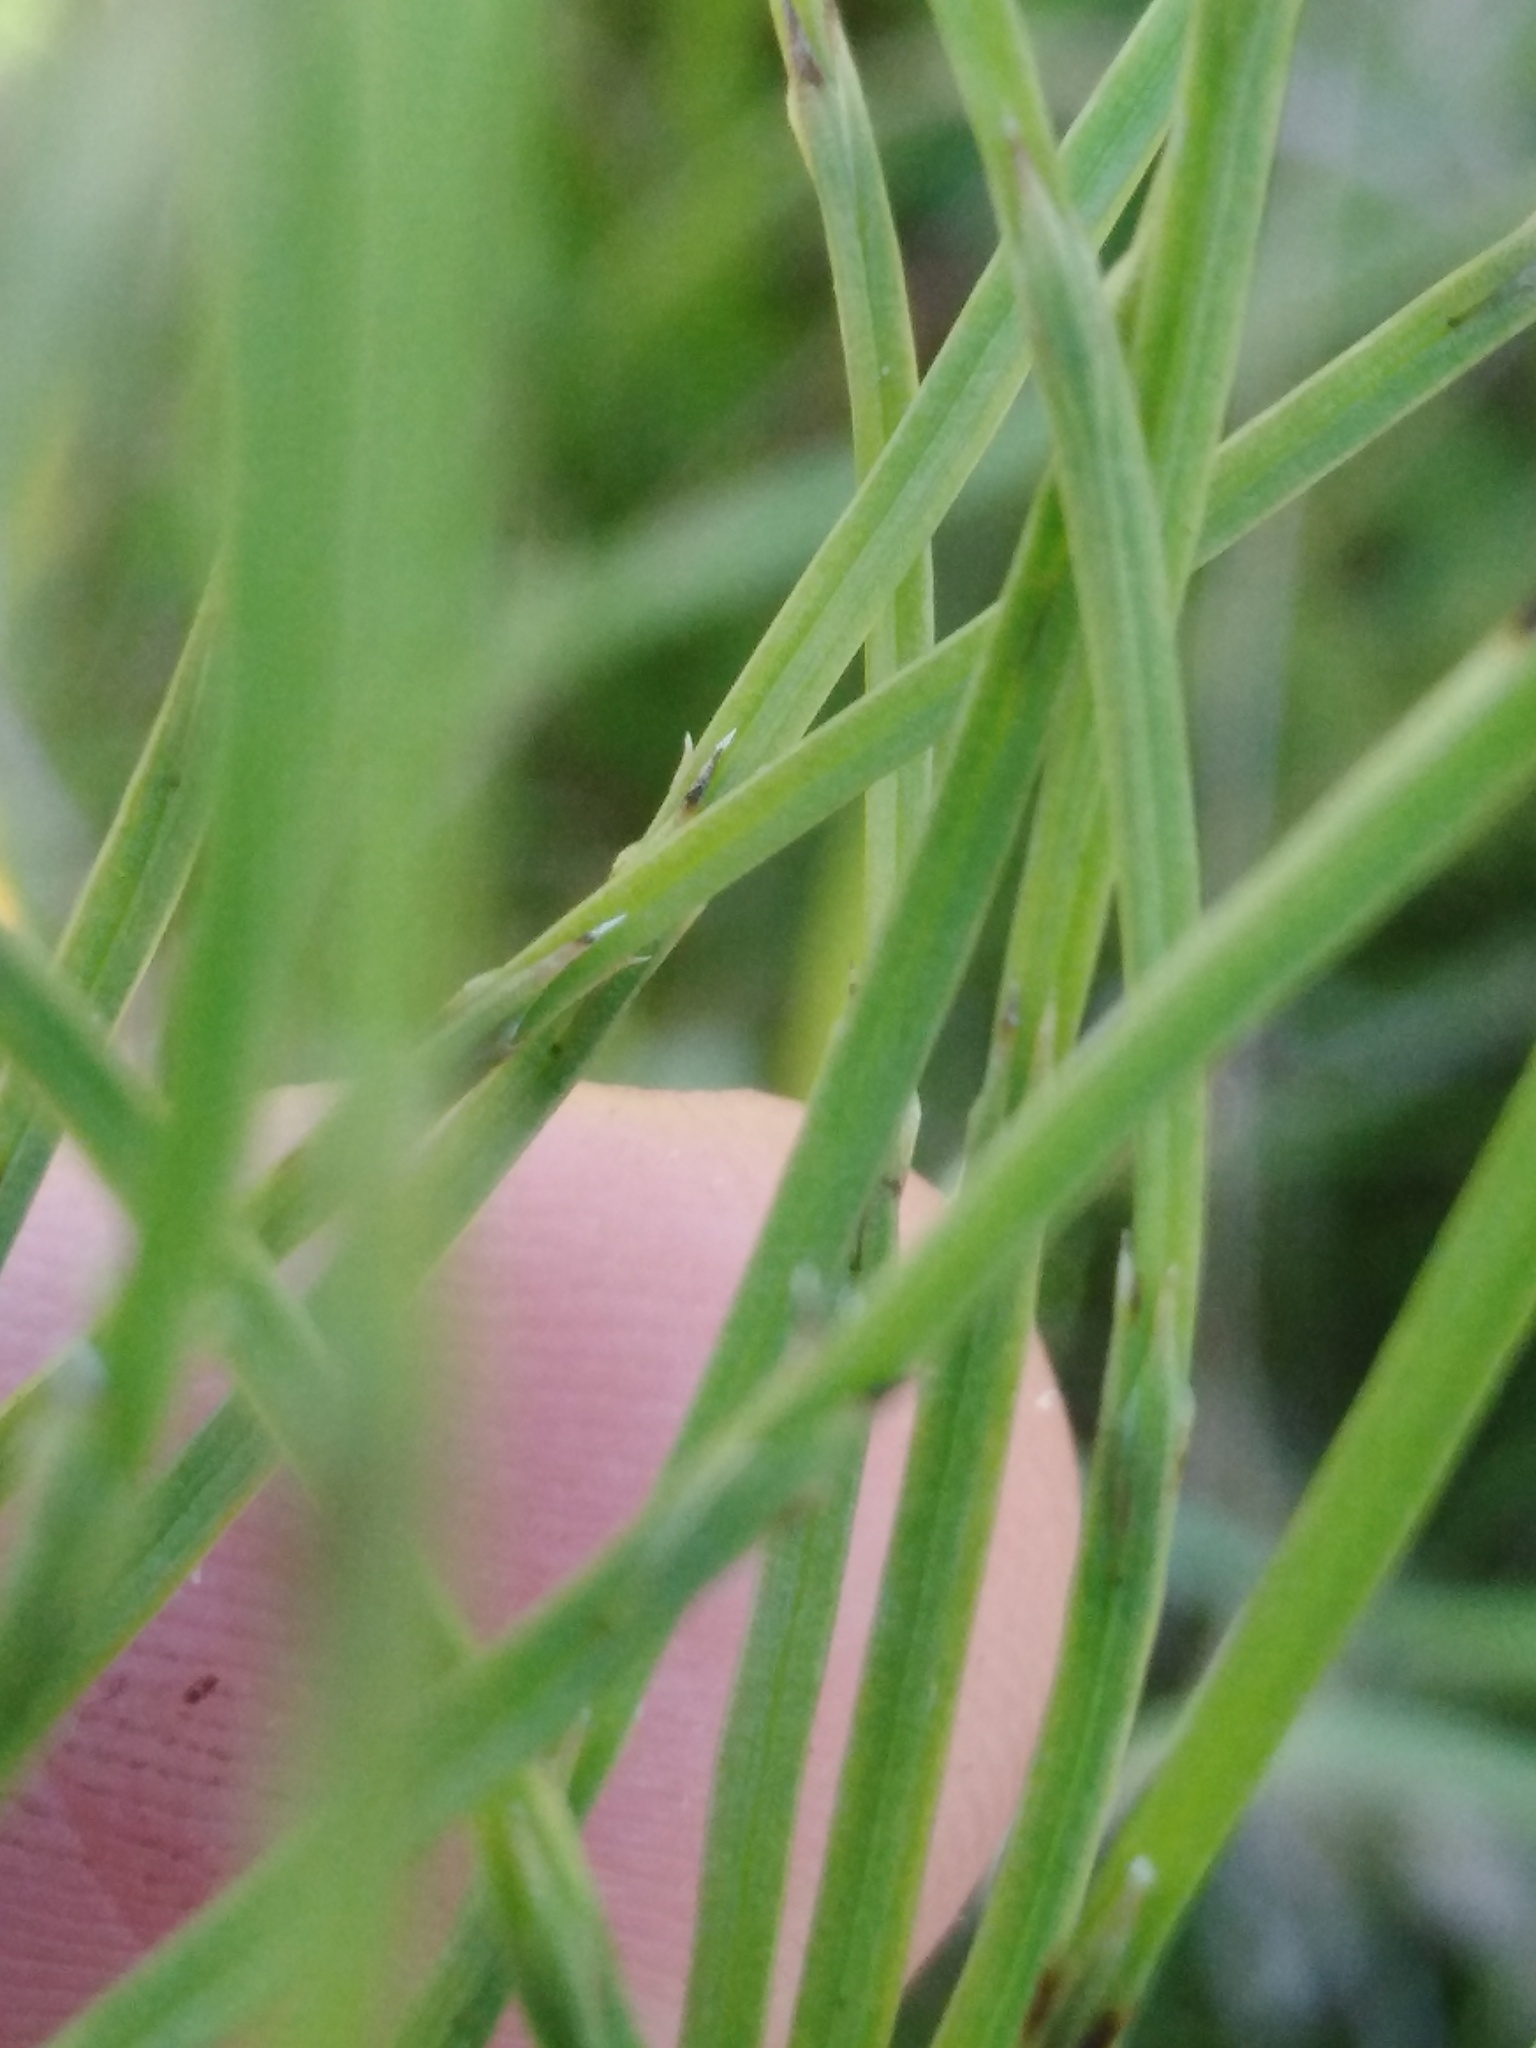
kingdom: Plantae
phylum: Tracheophyta
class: Polypodiopsida
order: Equisetales
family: Equisetaceae
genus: Equisetum
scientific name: Equisetum arvense
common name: Field horsetail
